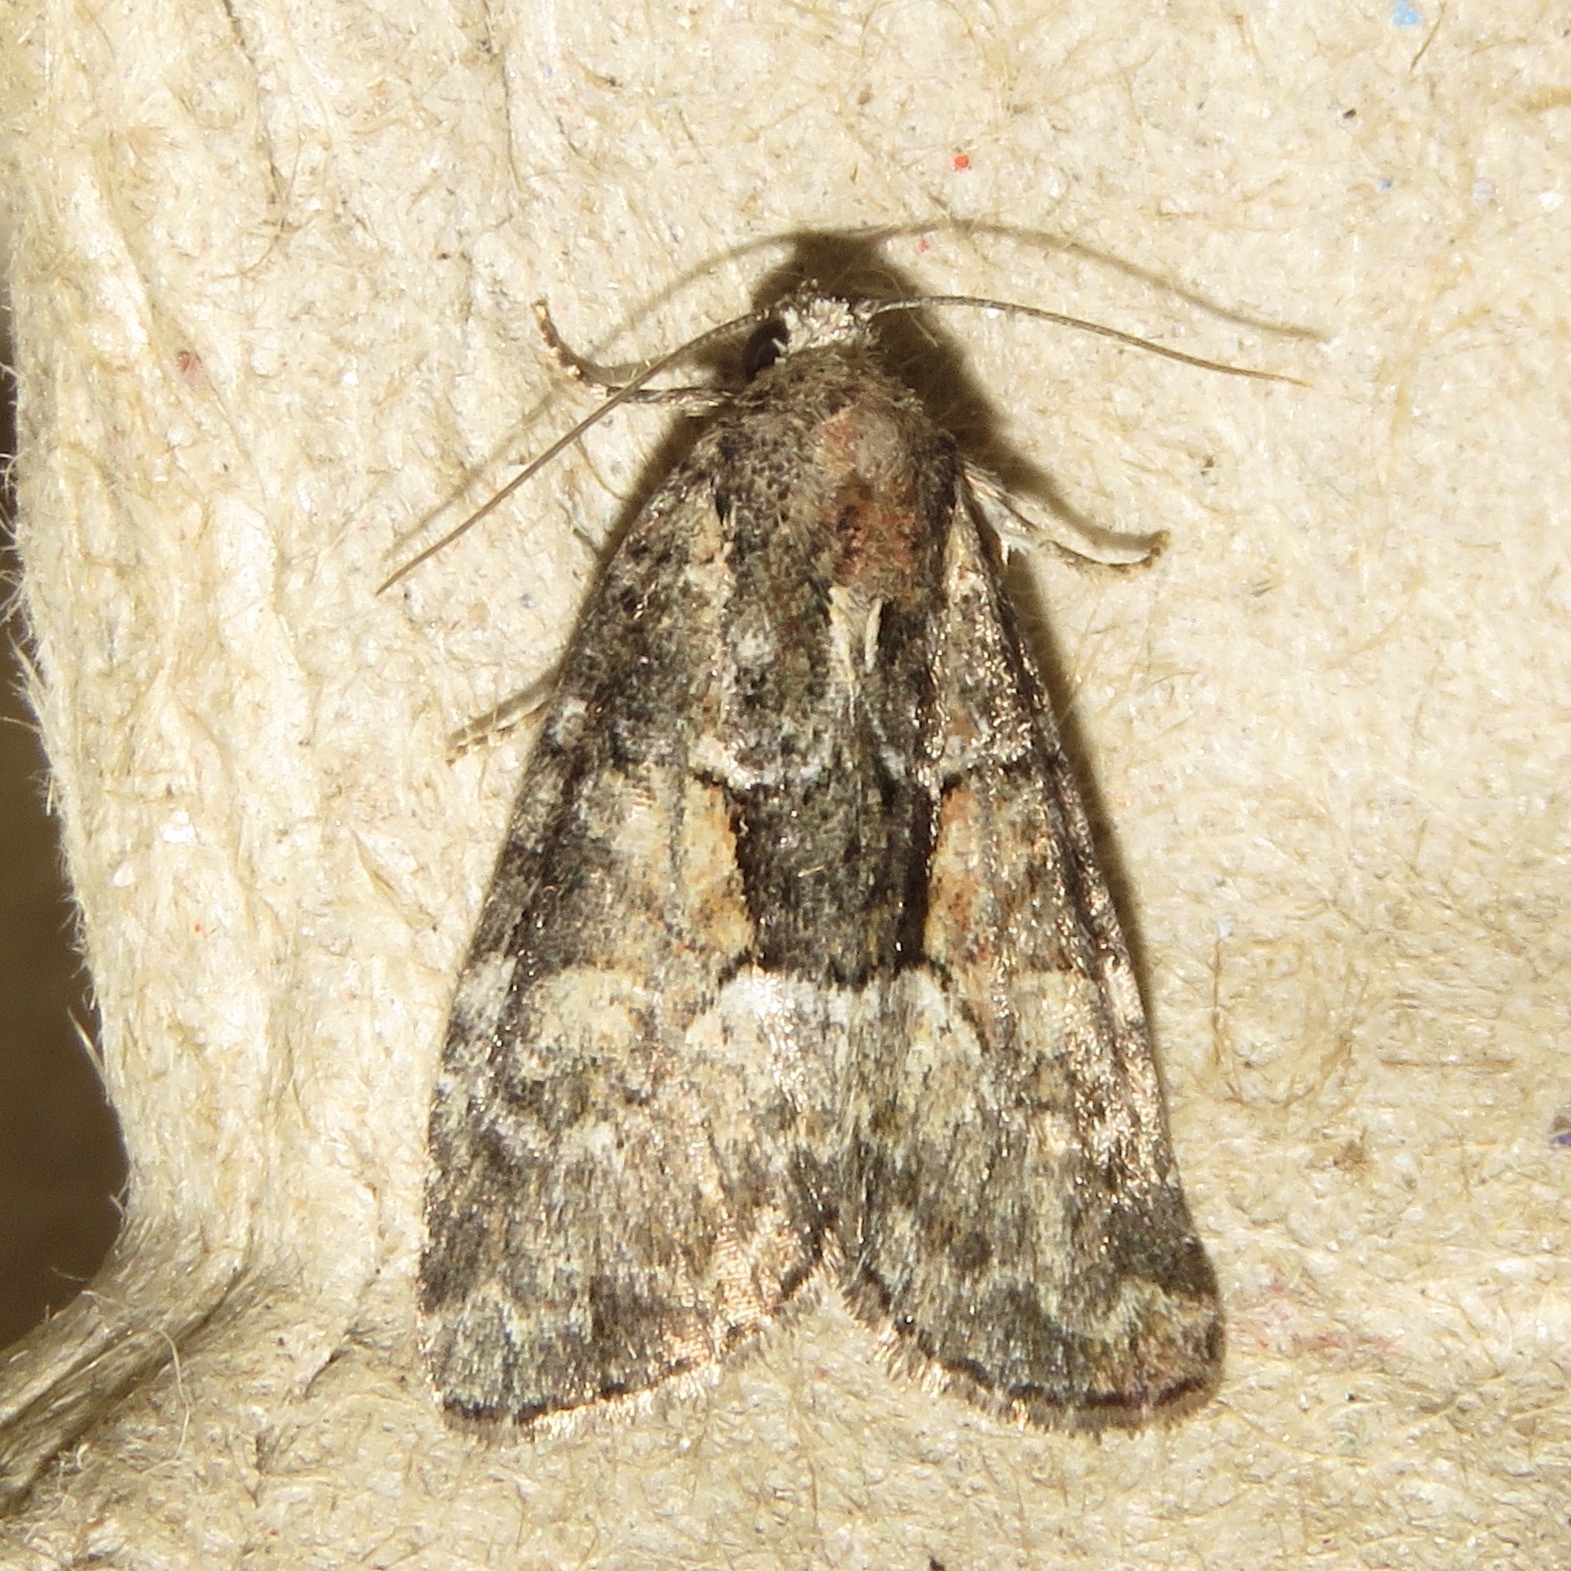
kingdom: Animalia
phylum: Arthropoda
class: Insecta
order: Lepidoptera
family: Noctuidae
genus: Neoligia
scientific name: Neoligia subjuncta
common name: Connected brocade
